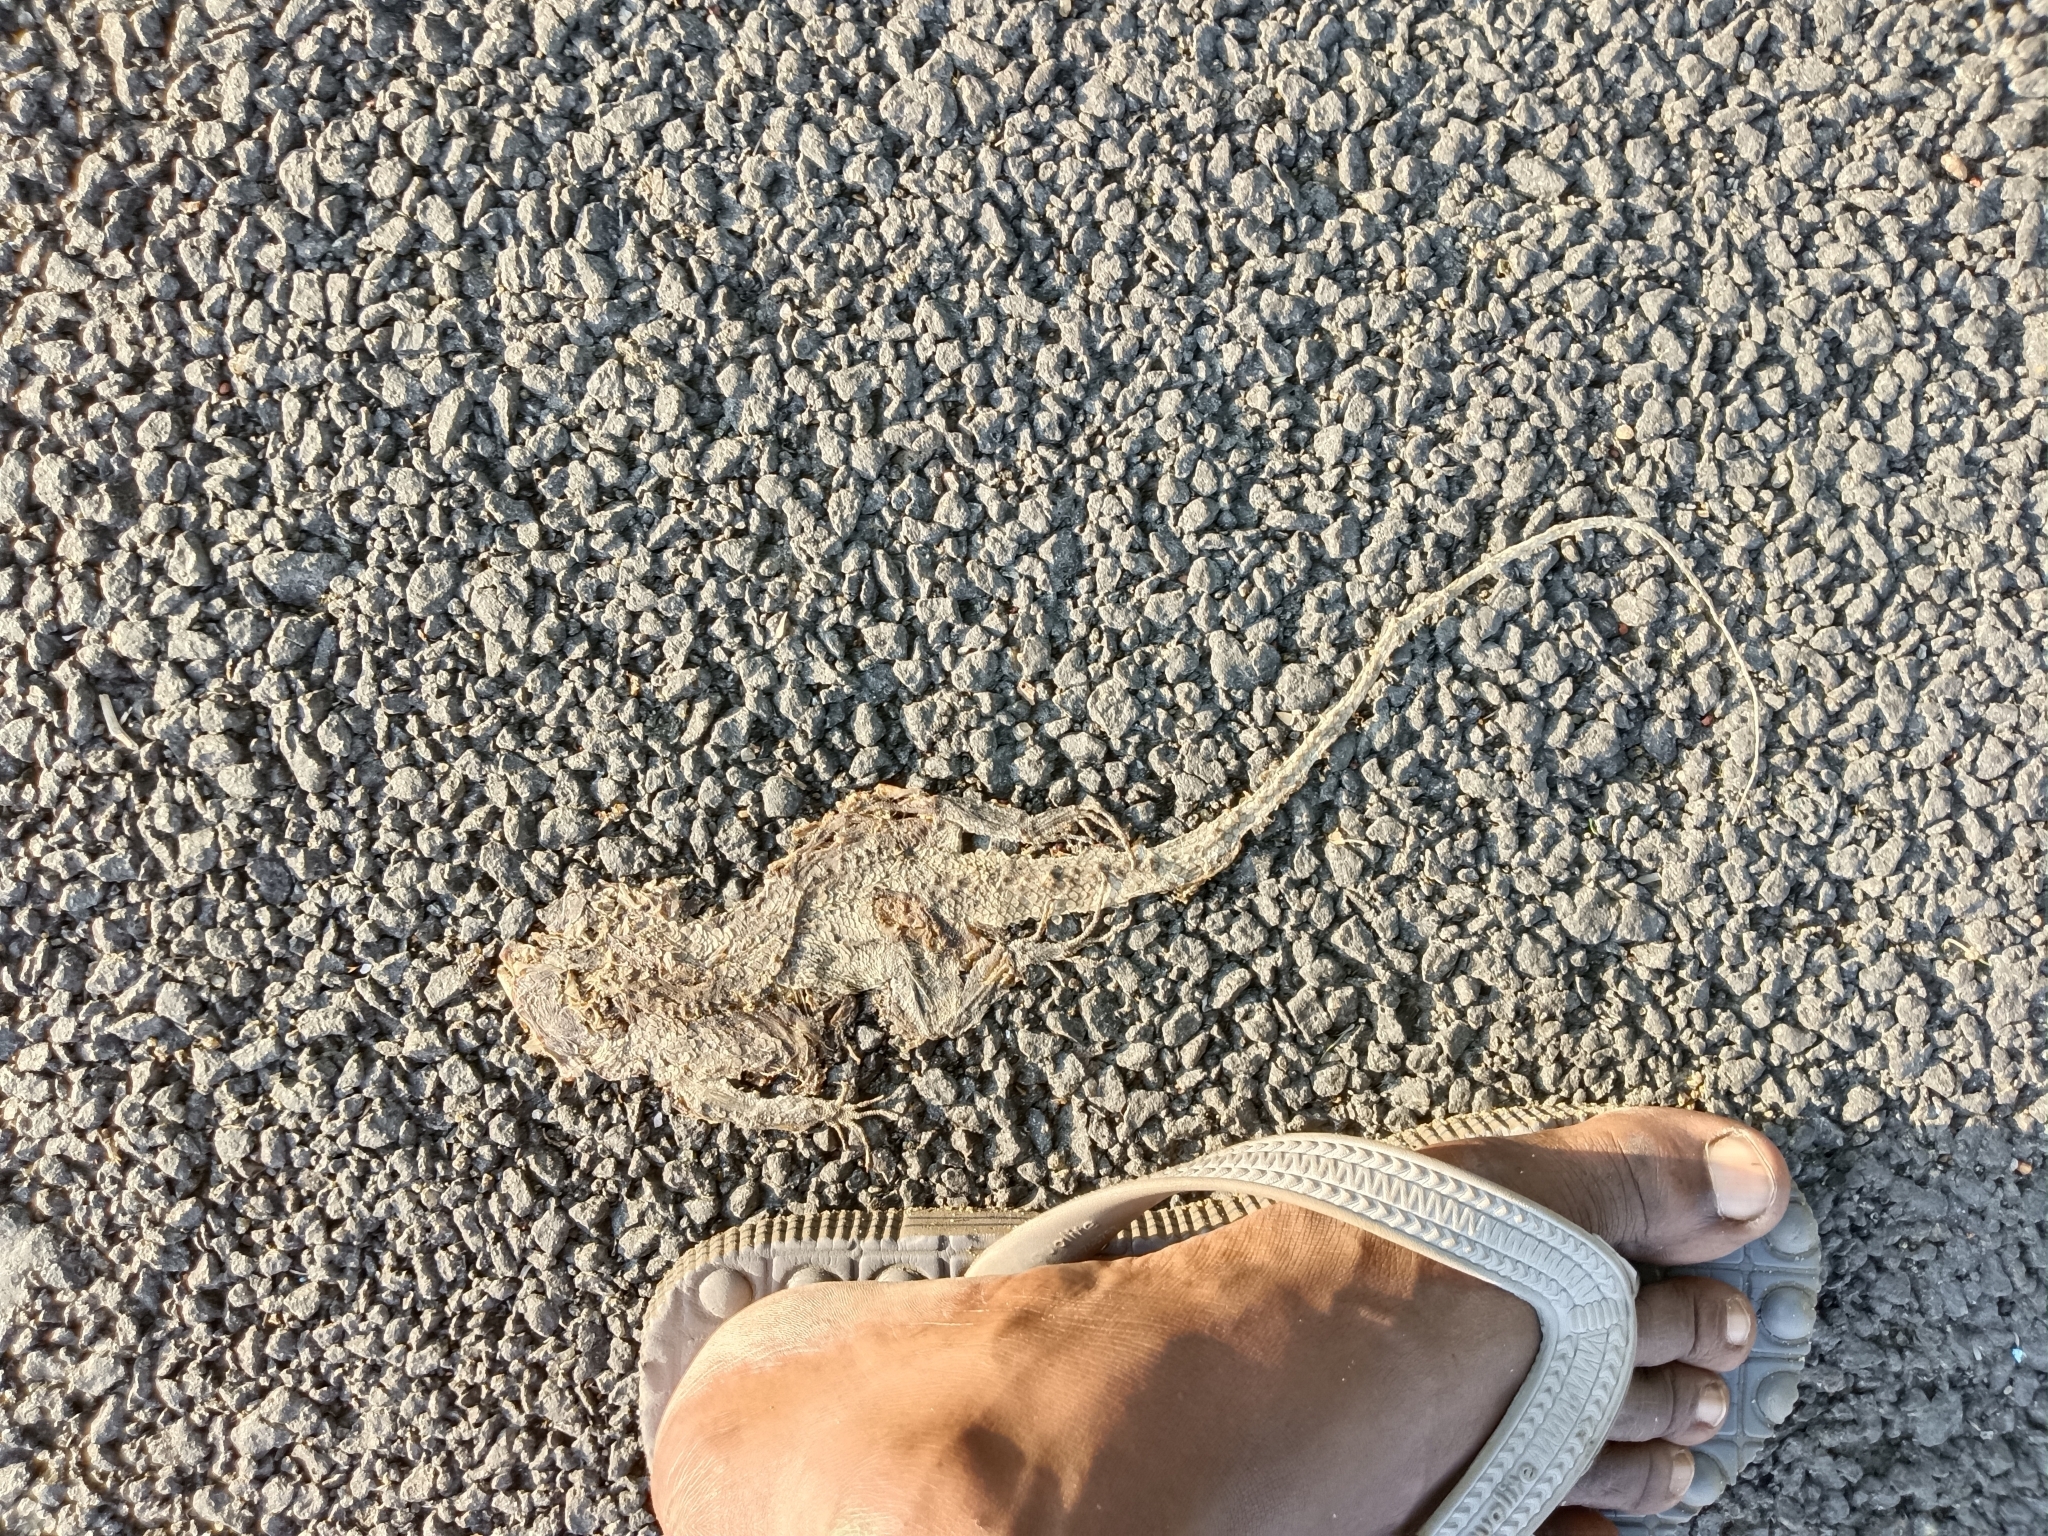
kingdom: Animalia
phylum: Chordata
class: Squamata
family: Agamidae
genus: Calotes
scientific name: Calotes versicolor
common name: Oriental garden lizard
